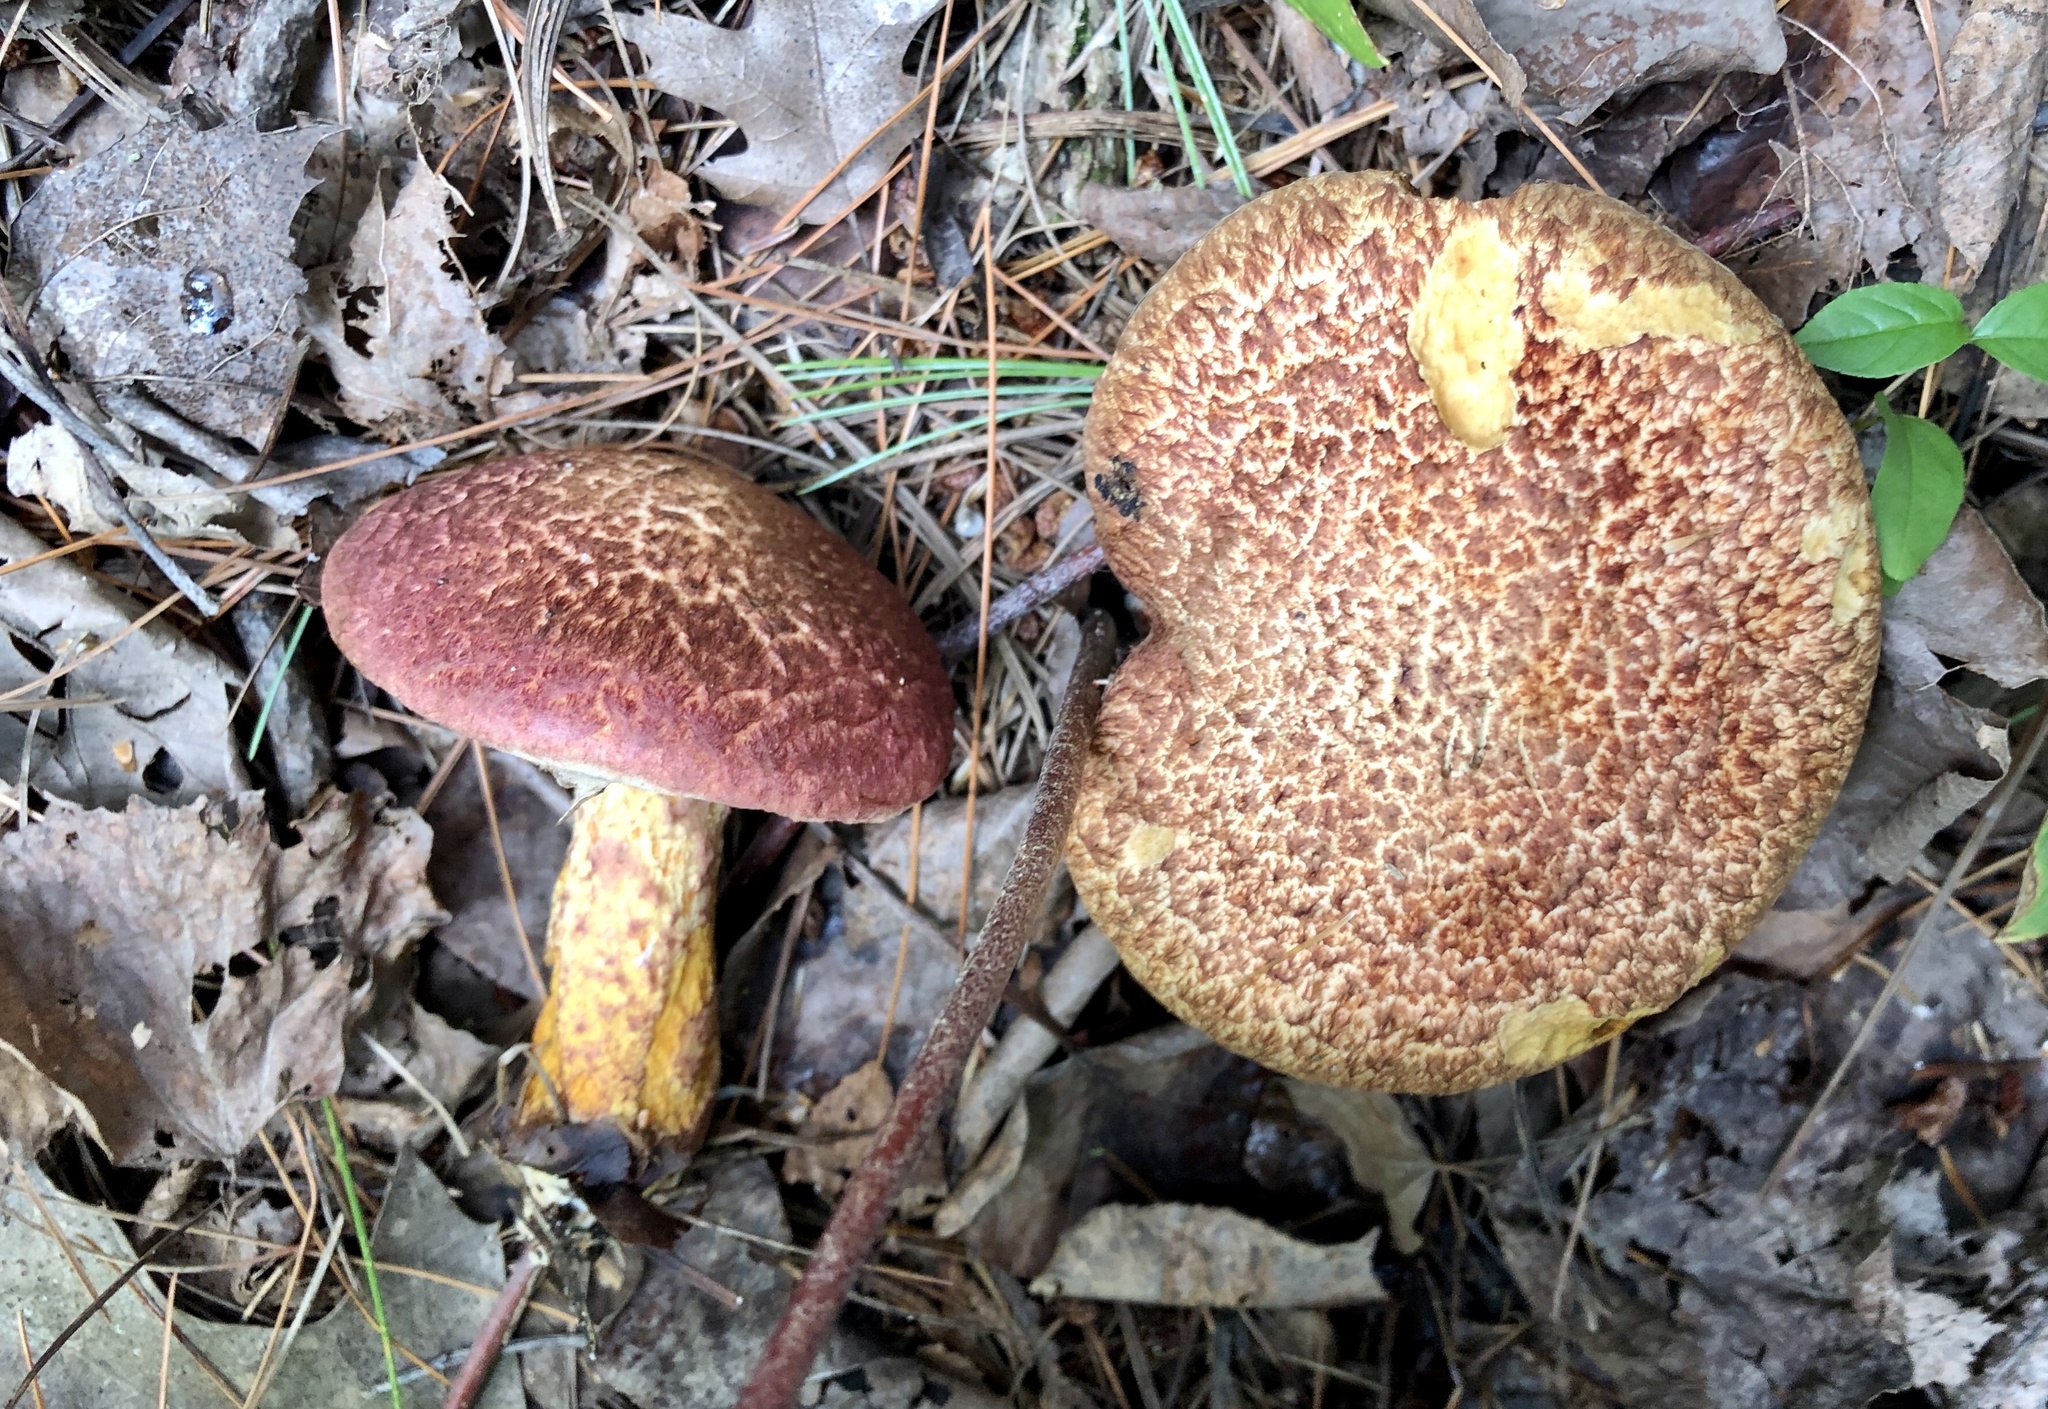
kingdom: Fungi
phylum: Basidiomycota
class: Agaricomycetes
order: Boletales
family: Suillaceae
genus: Suillus
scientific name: Suillus spraguei
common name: Painted suillus
